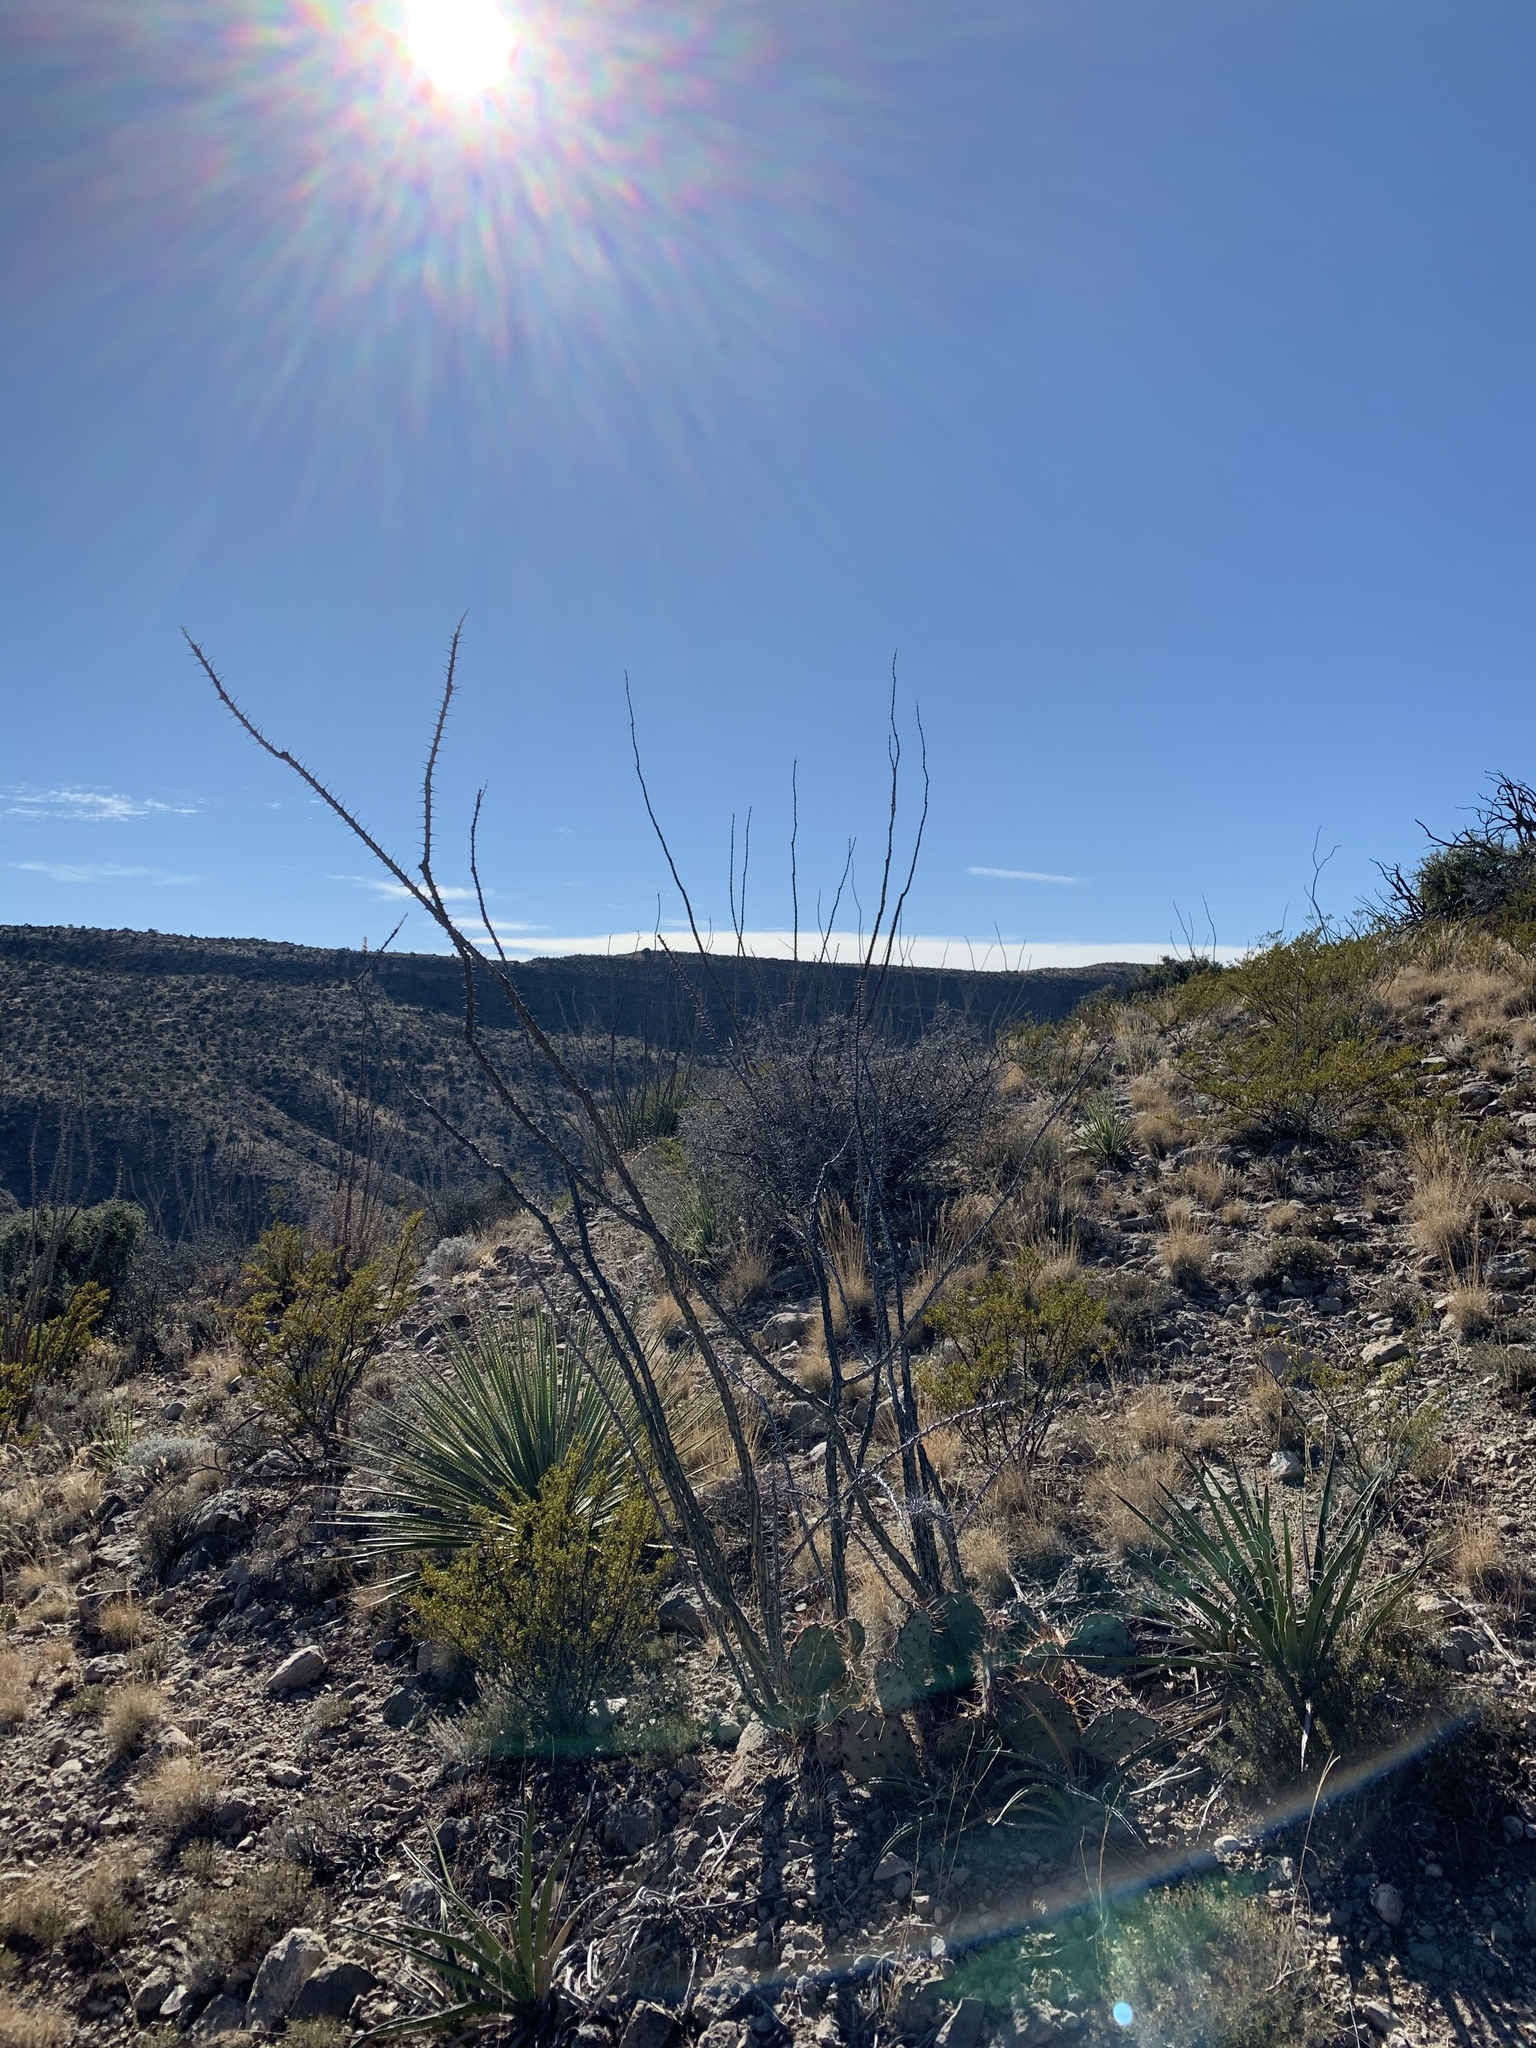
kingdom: Plantae
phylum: Tracheophyta
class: Magnoliopsida
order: Ericales
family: Fouquieriaceae
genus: Fouquieria
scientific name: Fouquieria splendens
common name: Vine-cactus
